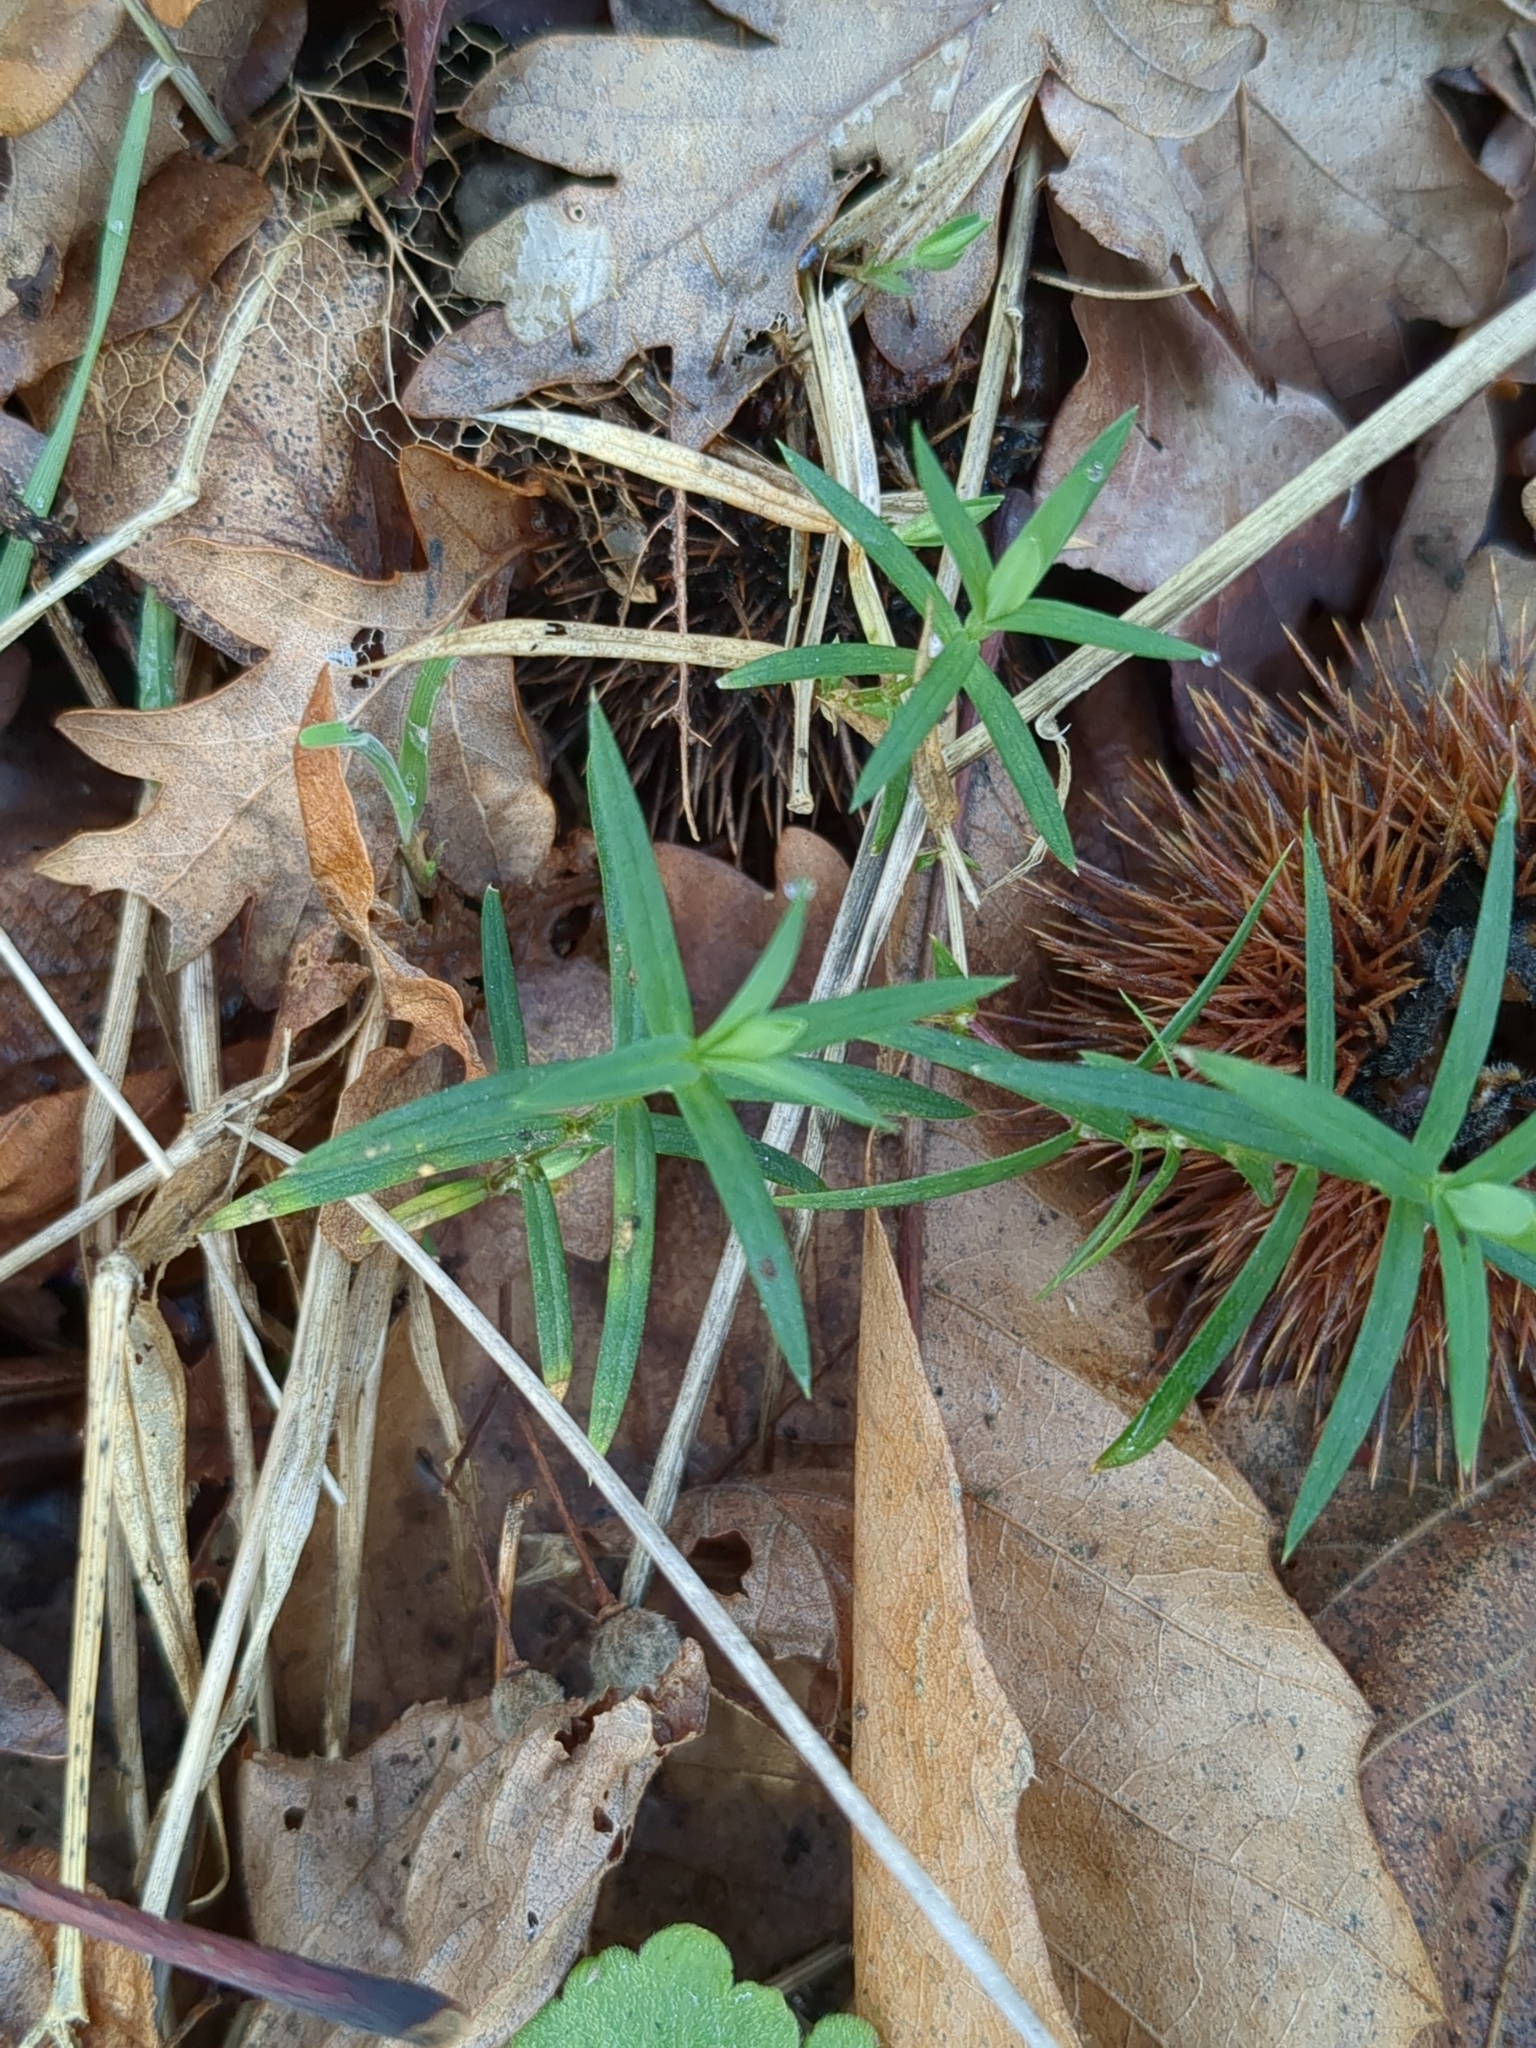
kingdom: Plantae
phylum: Tracheophyta
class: Magnoliopsida
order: Caryophyllales
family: Caryophyllaceae
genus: Rabelera
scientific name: Rabelera holostea
